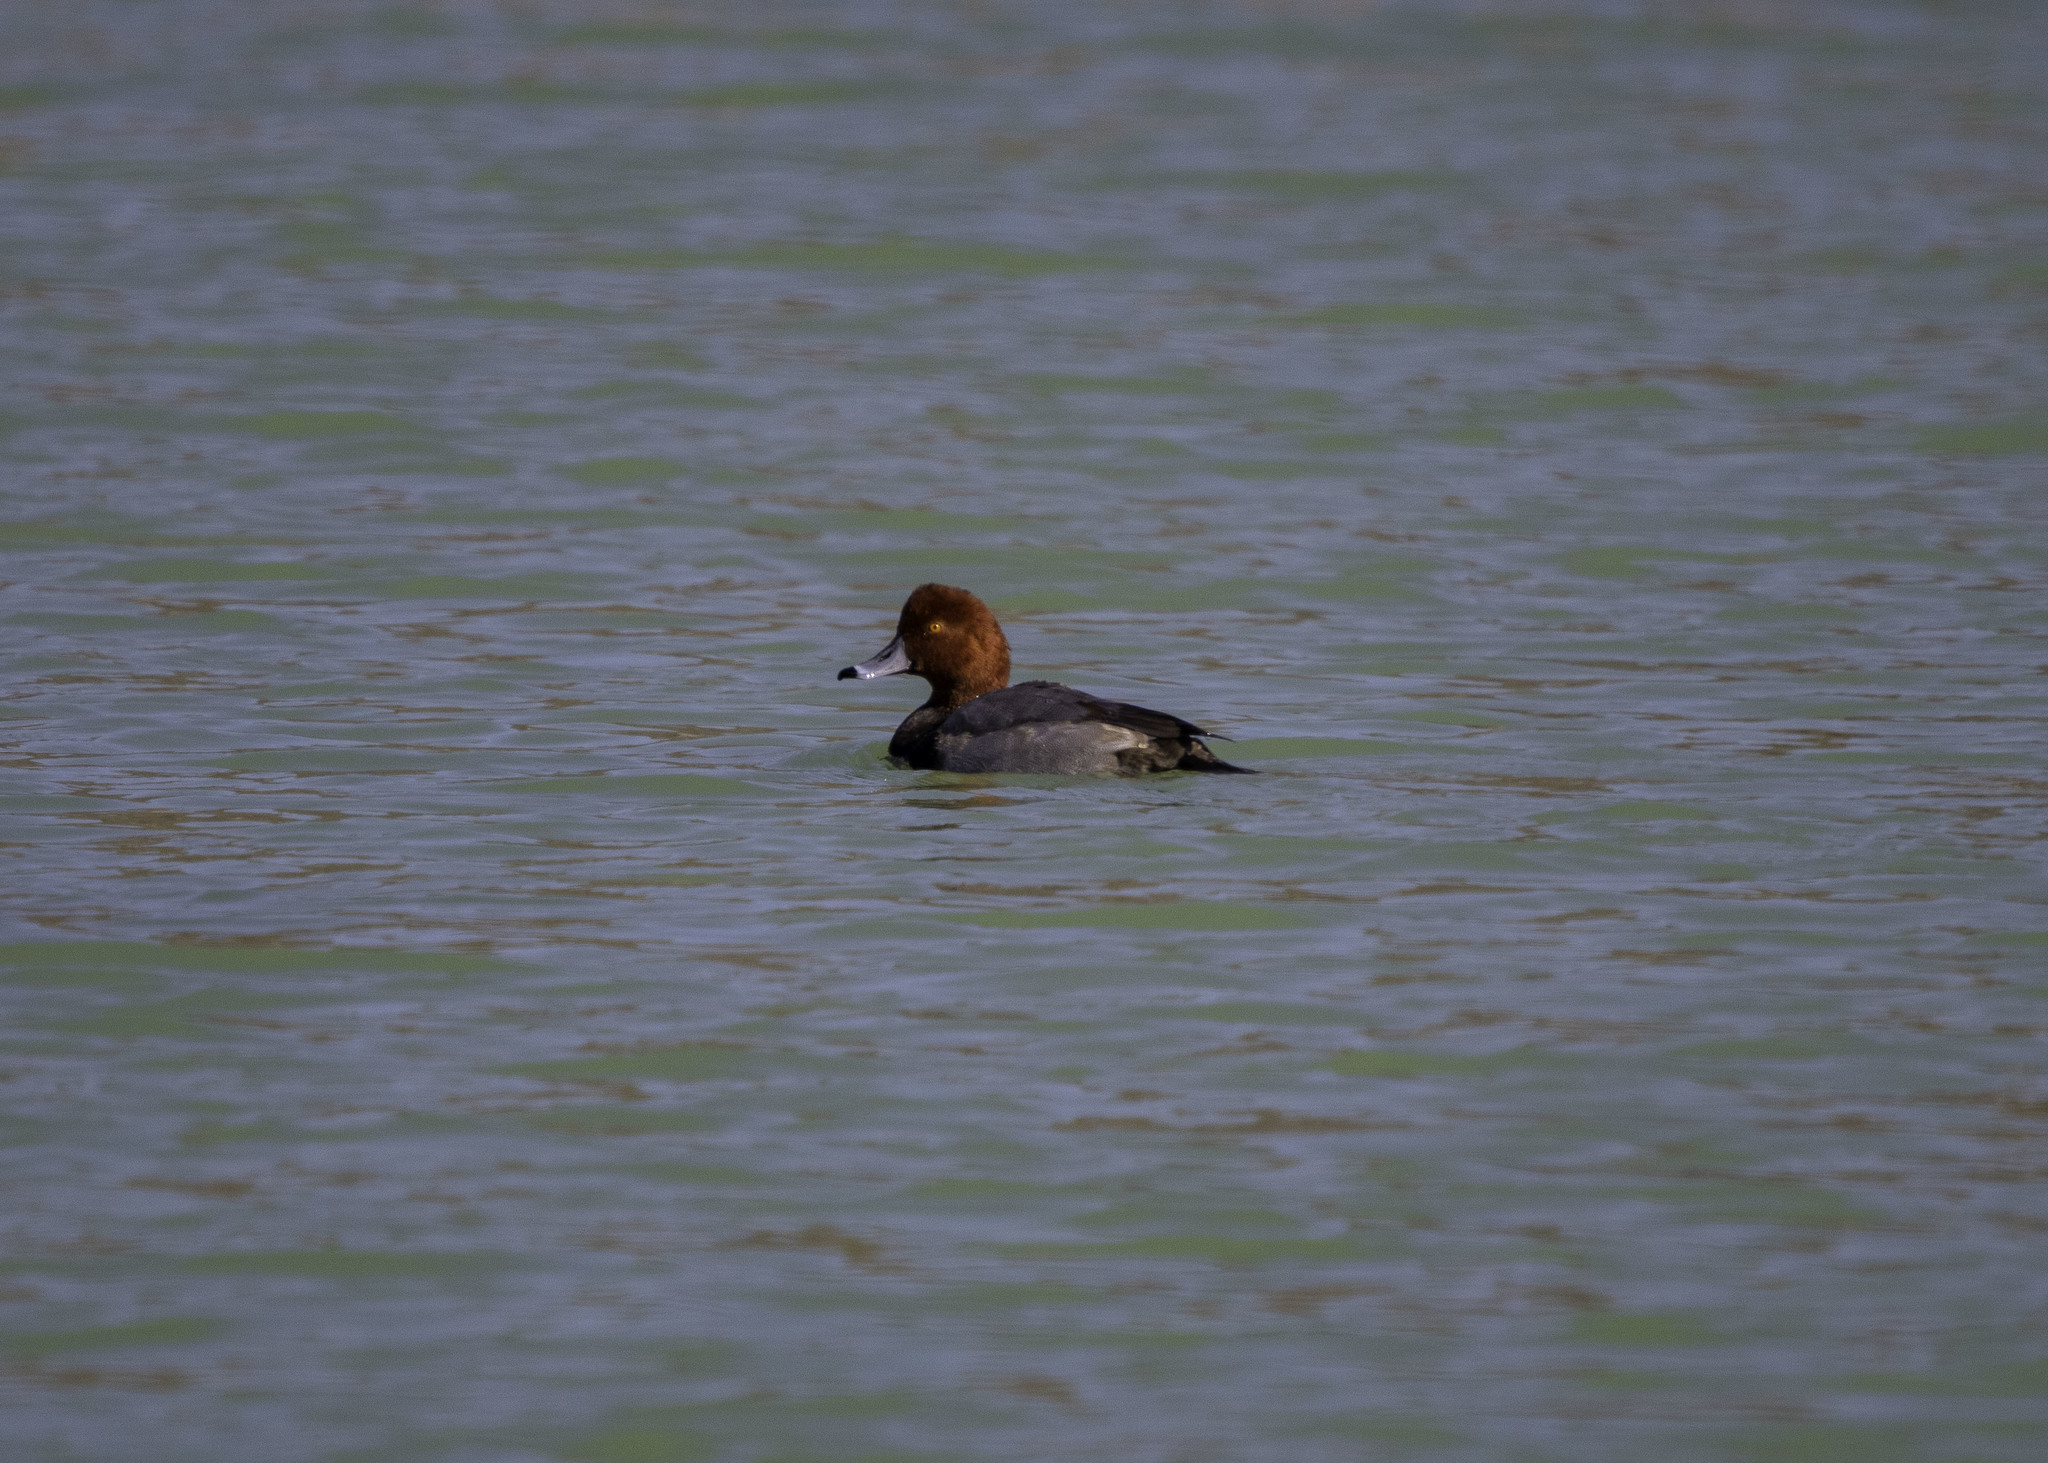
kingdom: Animalia
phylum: Chordata
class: Aves
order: Anseriformes
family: Anatidae
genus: Aythya
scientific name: Aythya americana
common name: Redhead
